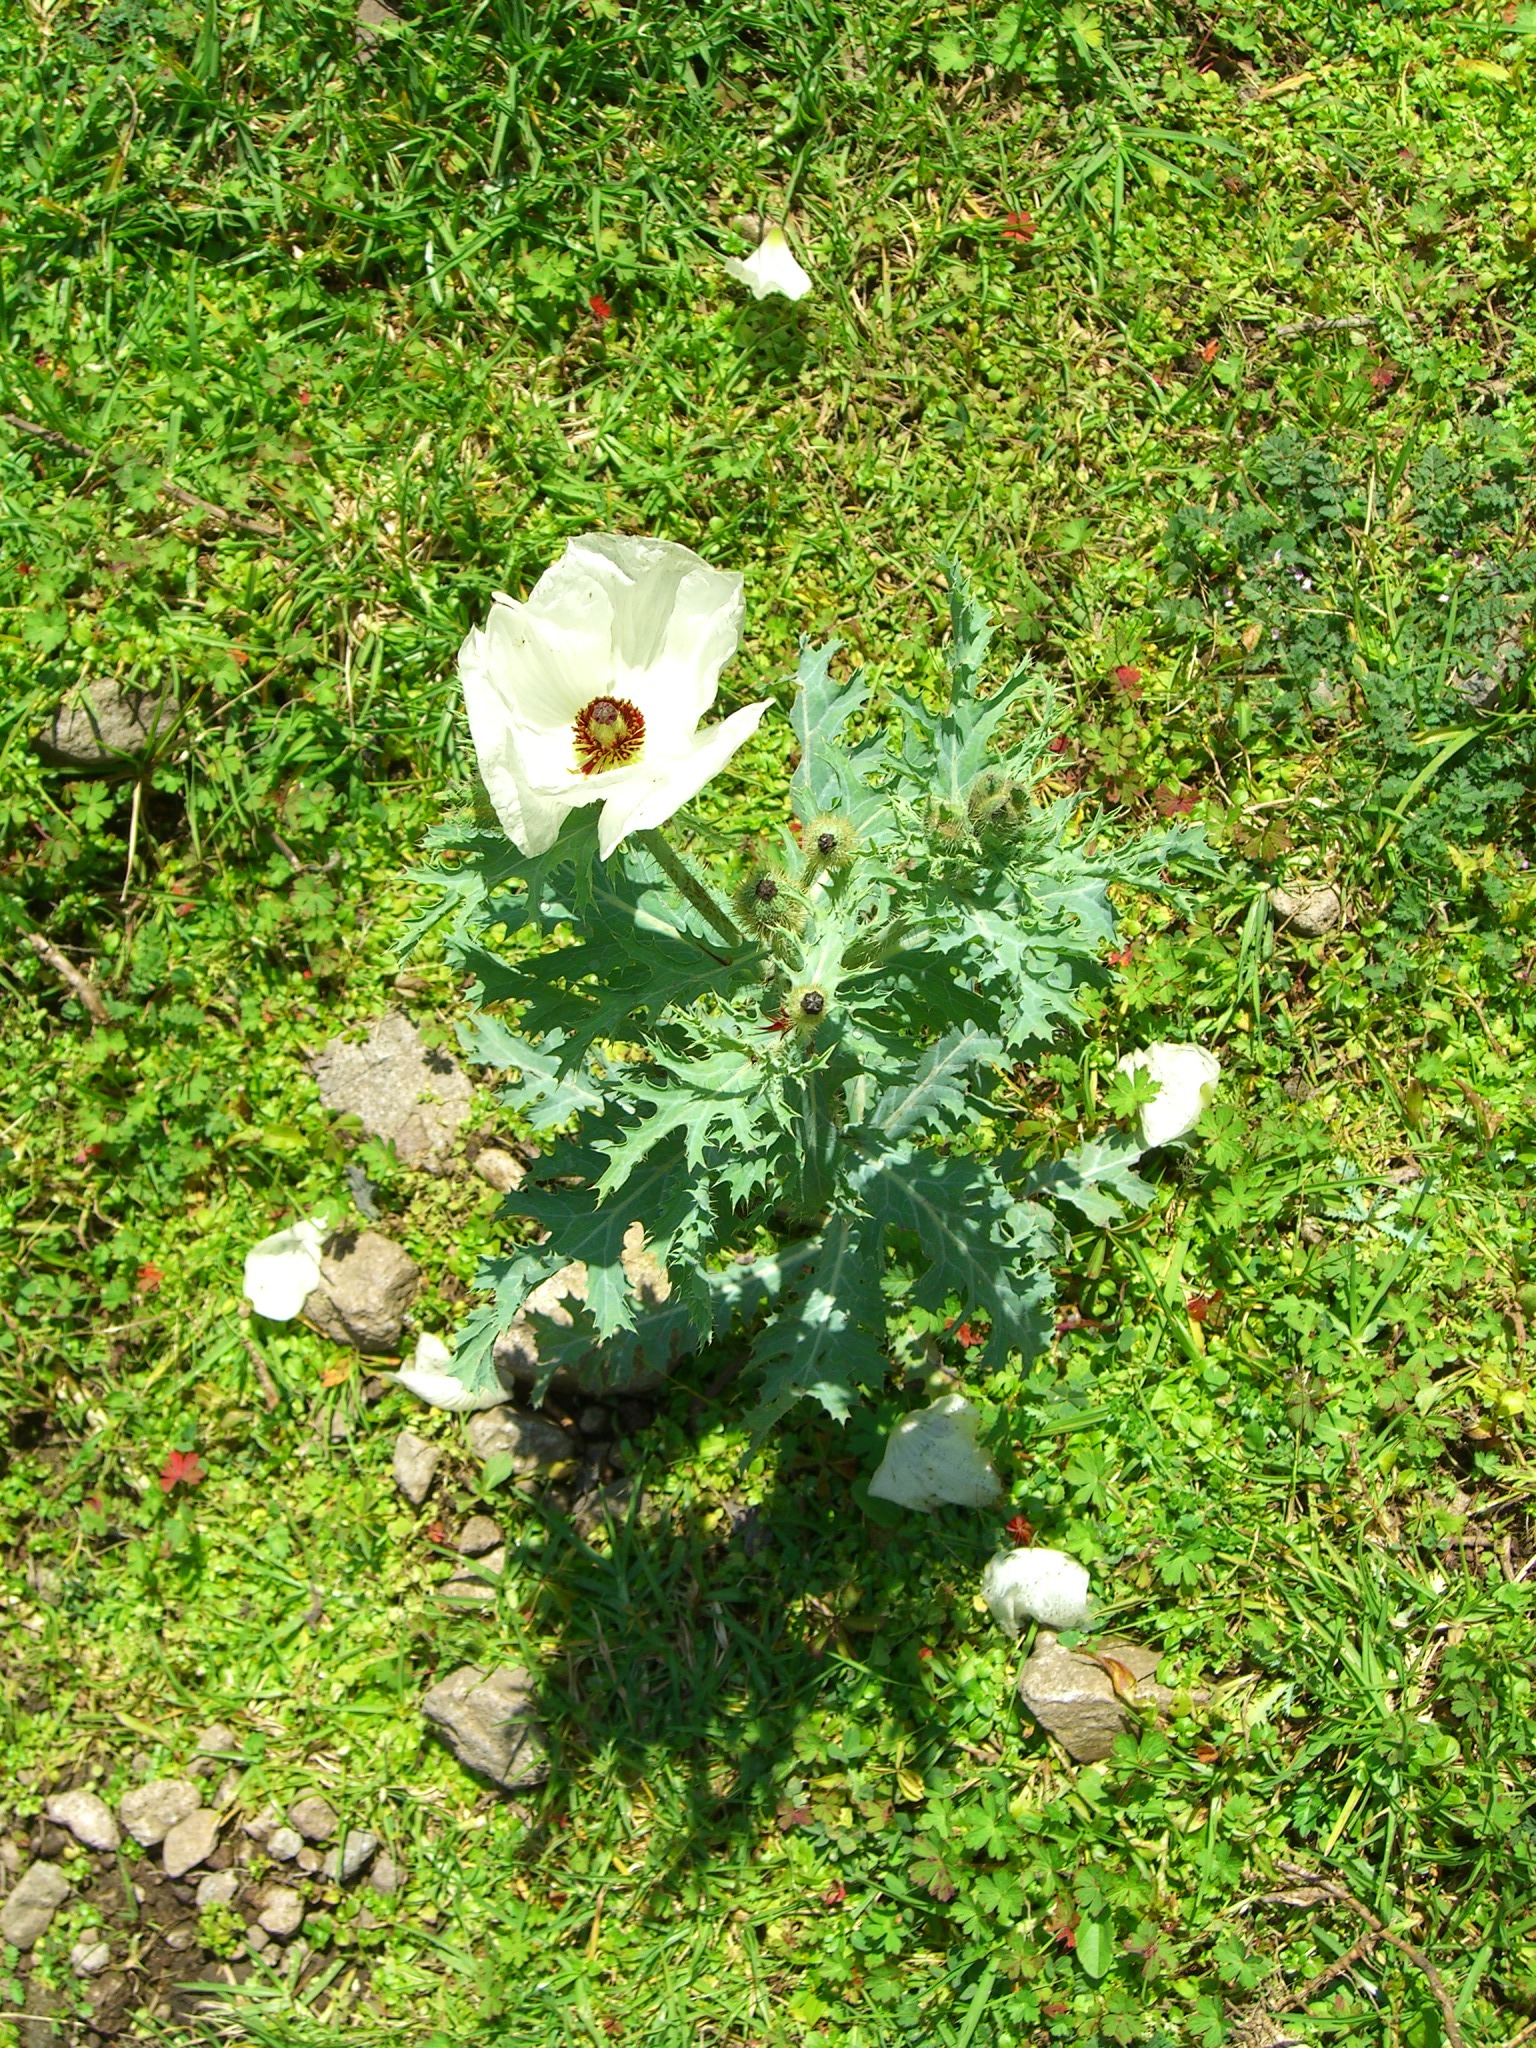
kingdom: Plantae
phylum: Tracheophyta
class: Magnoliopsida
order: Ranunculales
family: Papaveraceae
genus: Argemone
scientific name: Argemone platyceras
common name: Crested-poppy
